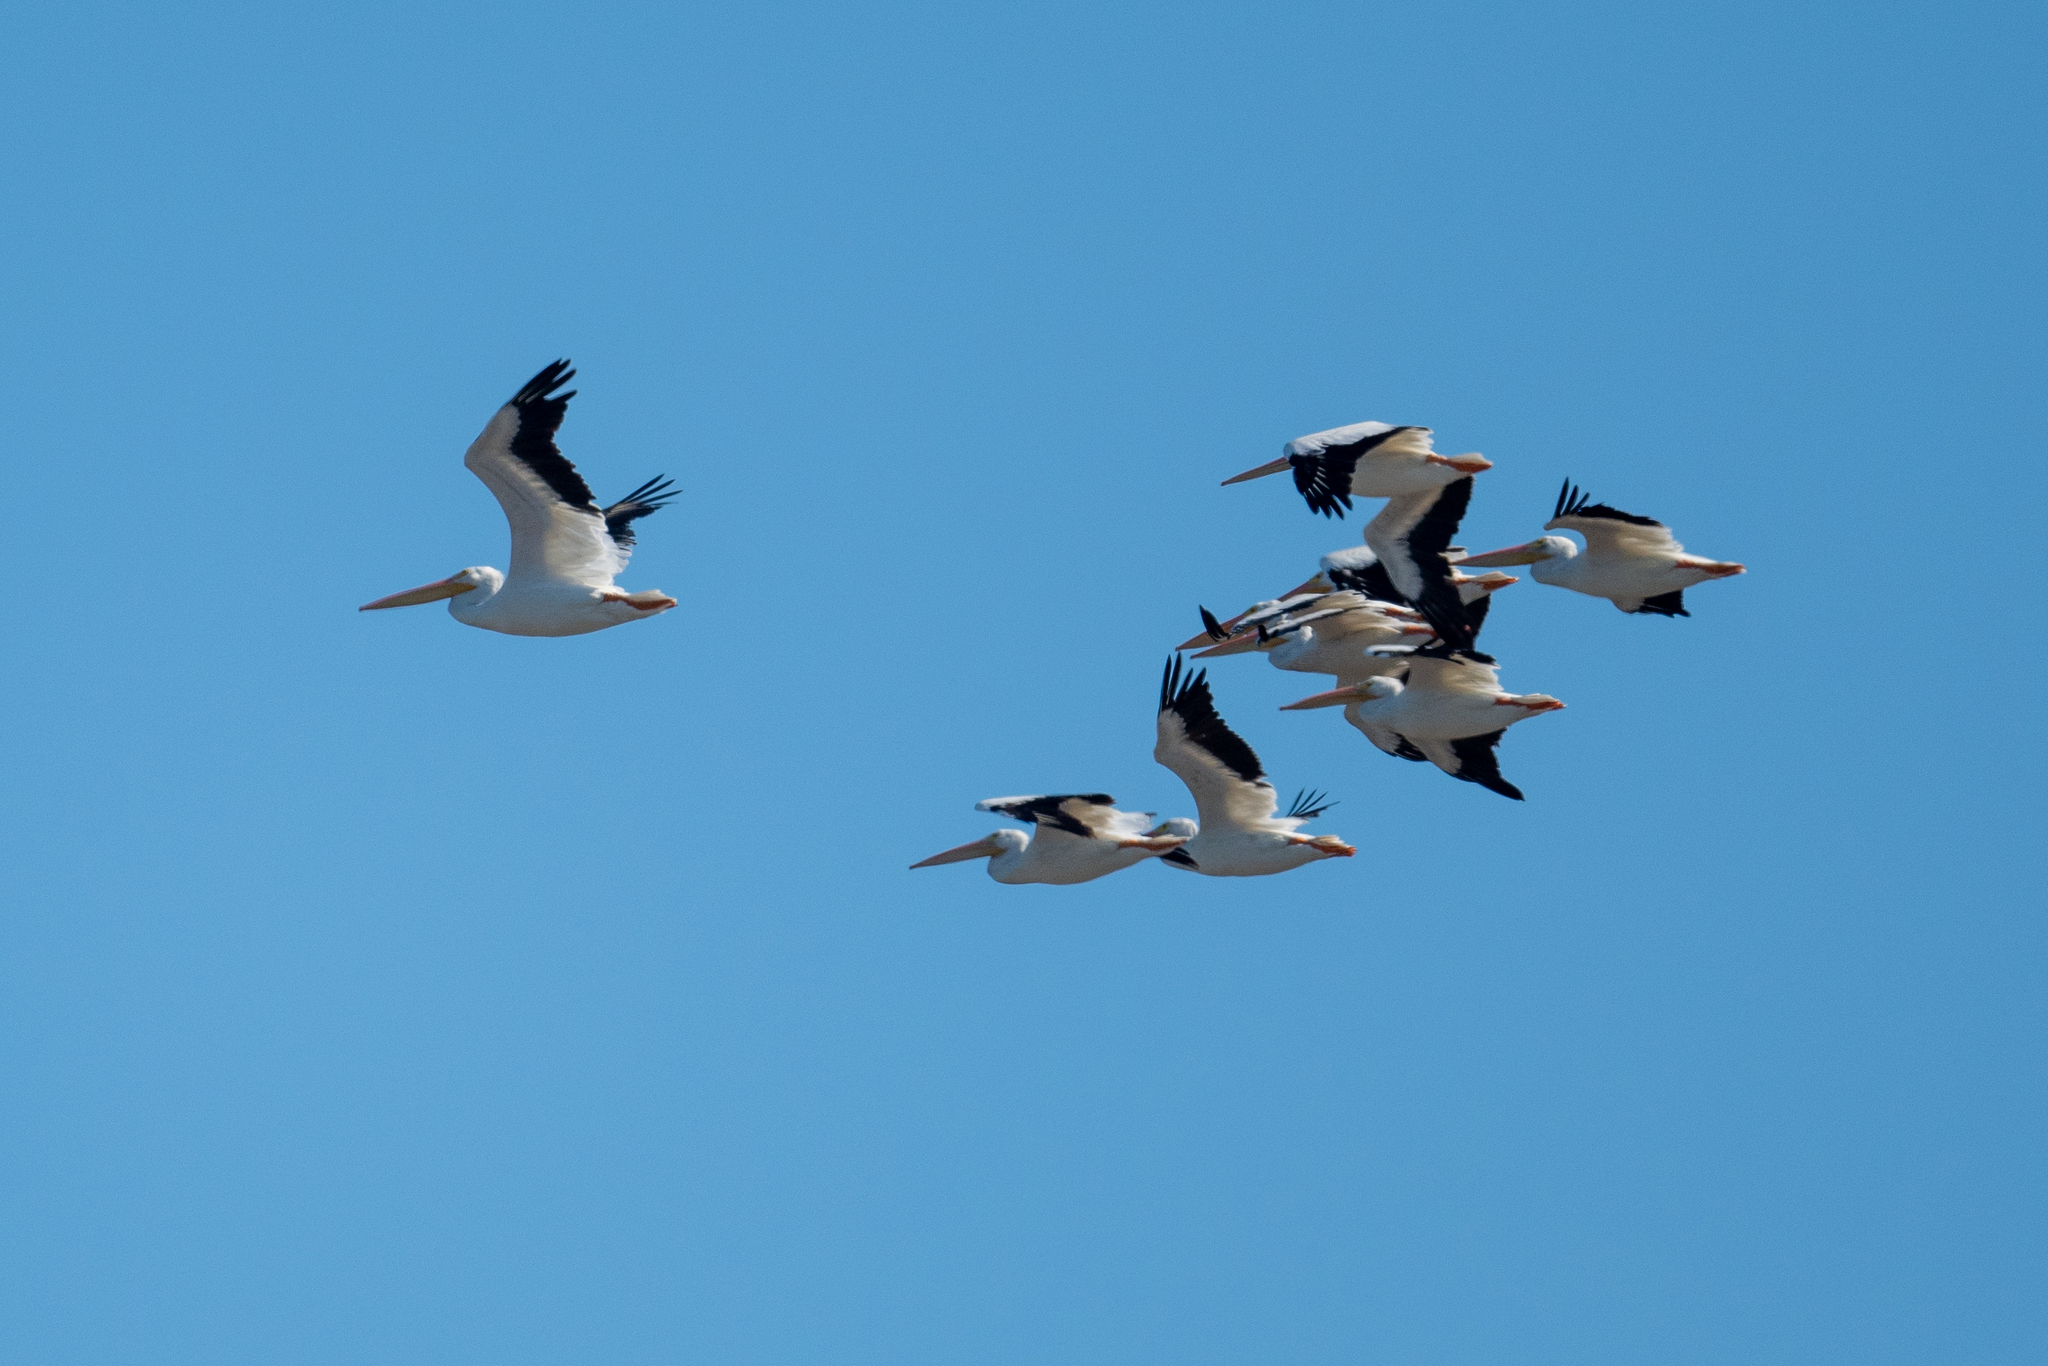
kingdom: Animalia
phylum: Chordata
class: Aves
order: Pelecaniformes
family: Pelecanidae
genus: Pelecanus
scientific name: Pelecanus erythrorhynchos
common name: American white pelican
